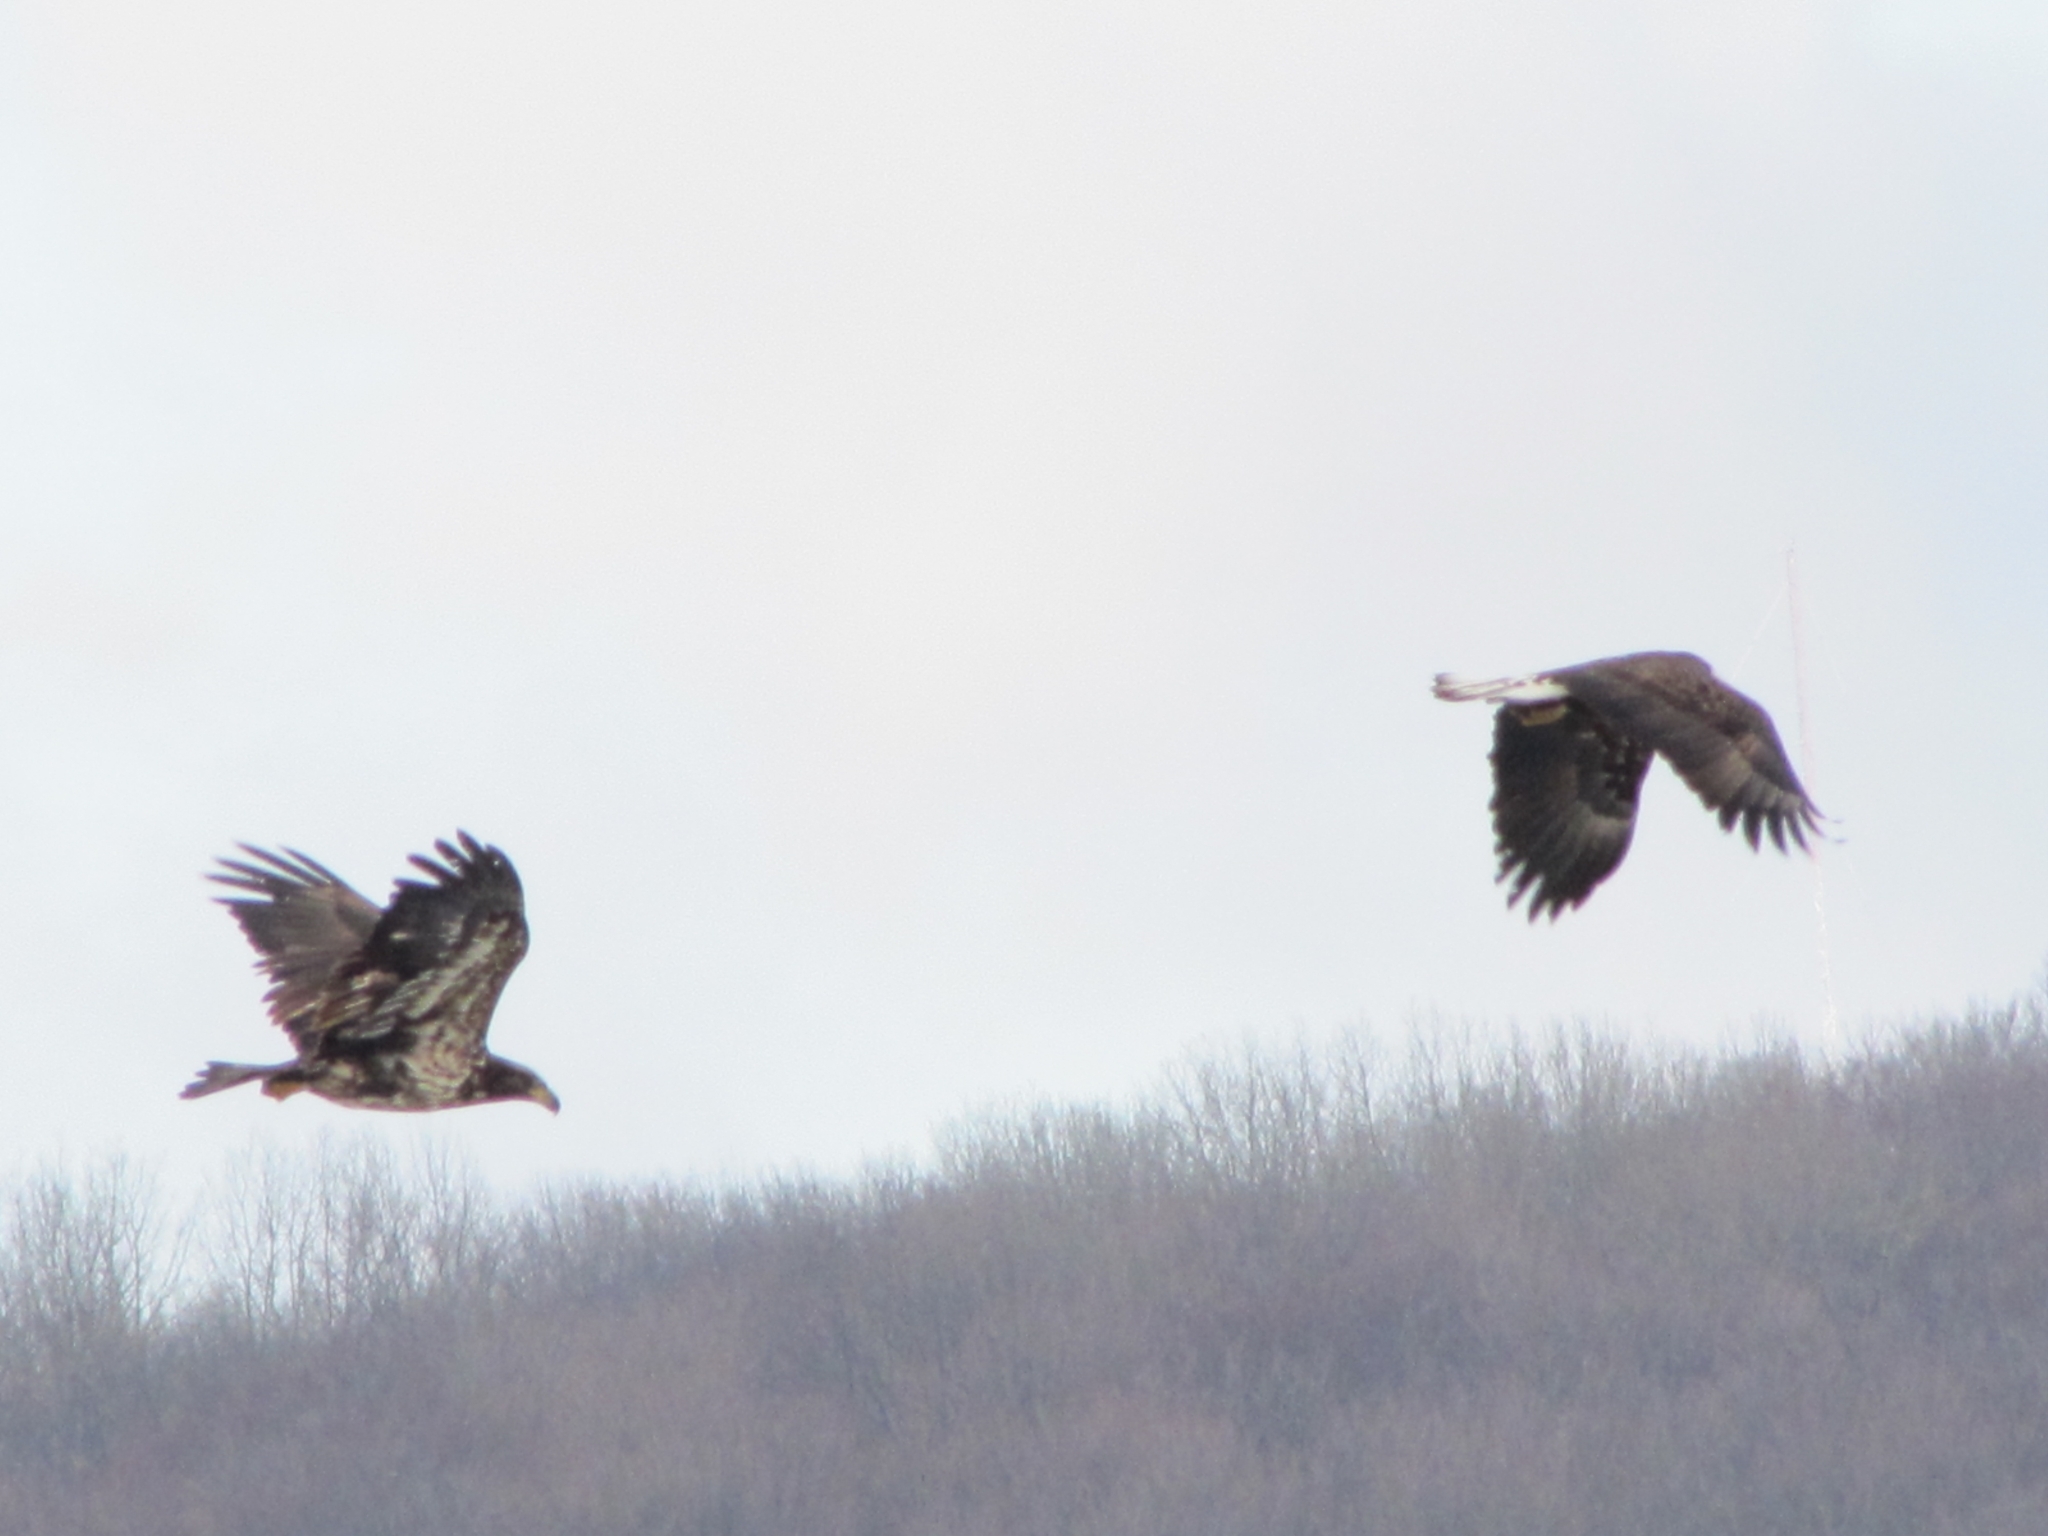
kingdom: Animalia
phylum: Chordata
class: Aves
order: Accipitriformes
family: Accipitridae
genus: Haliaeetus
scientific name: Haliaeetus leucocephalus
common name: Bald eagle
